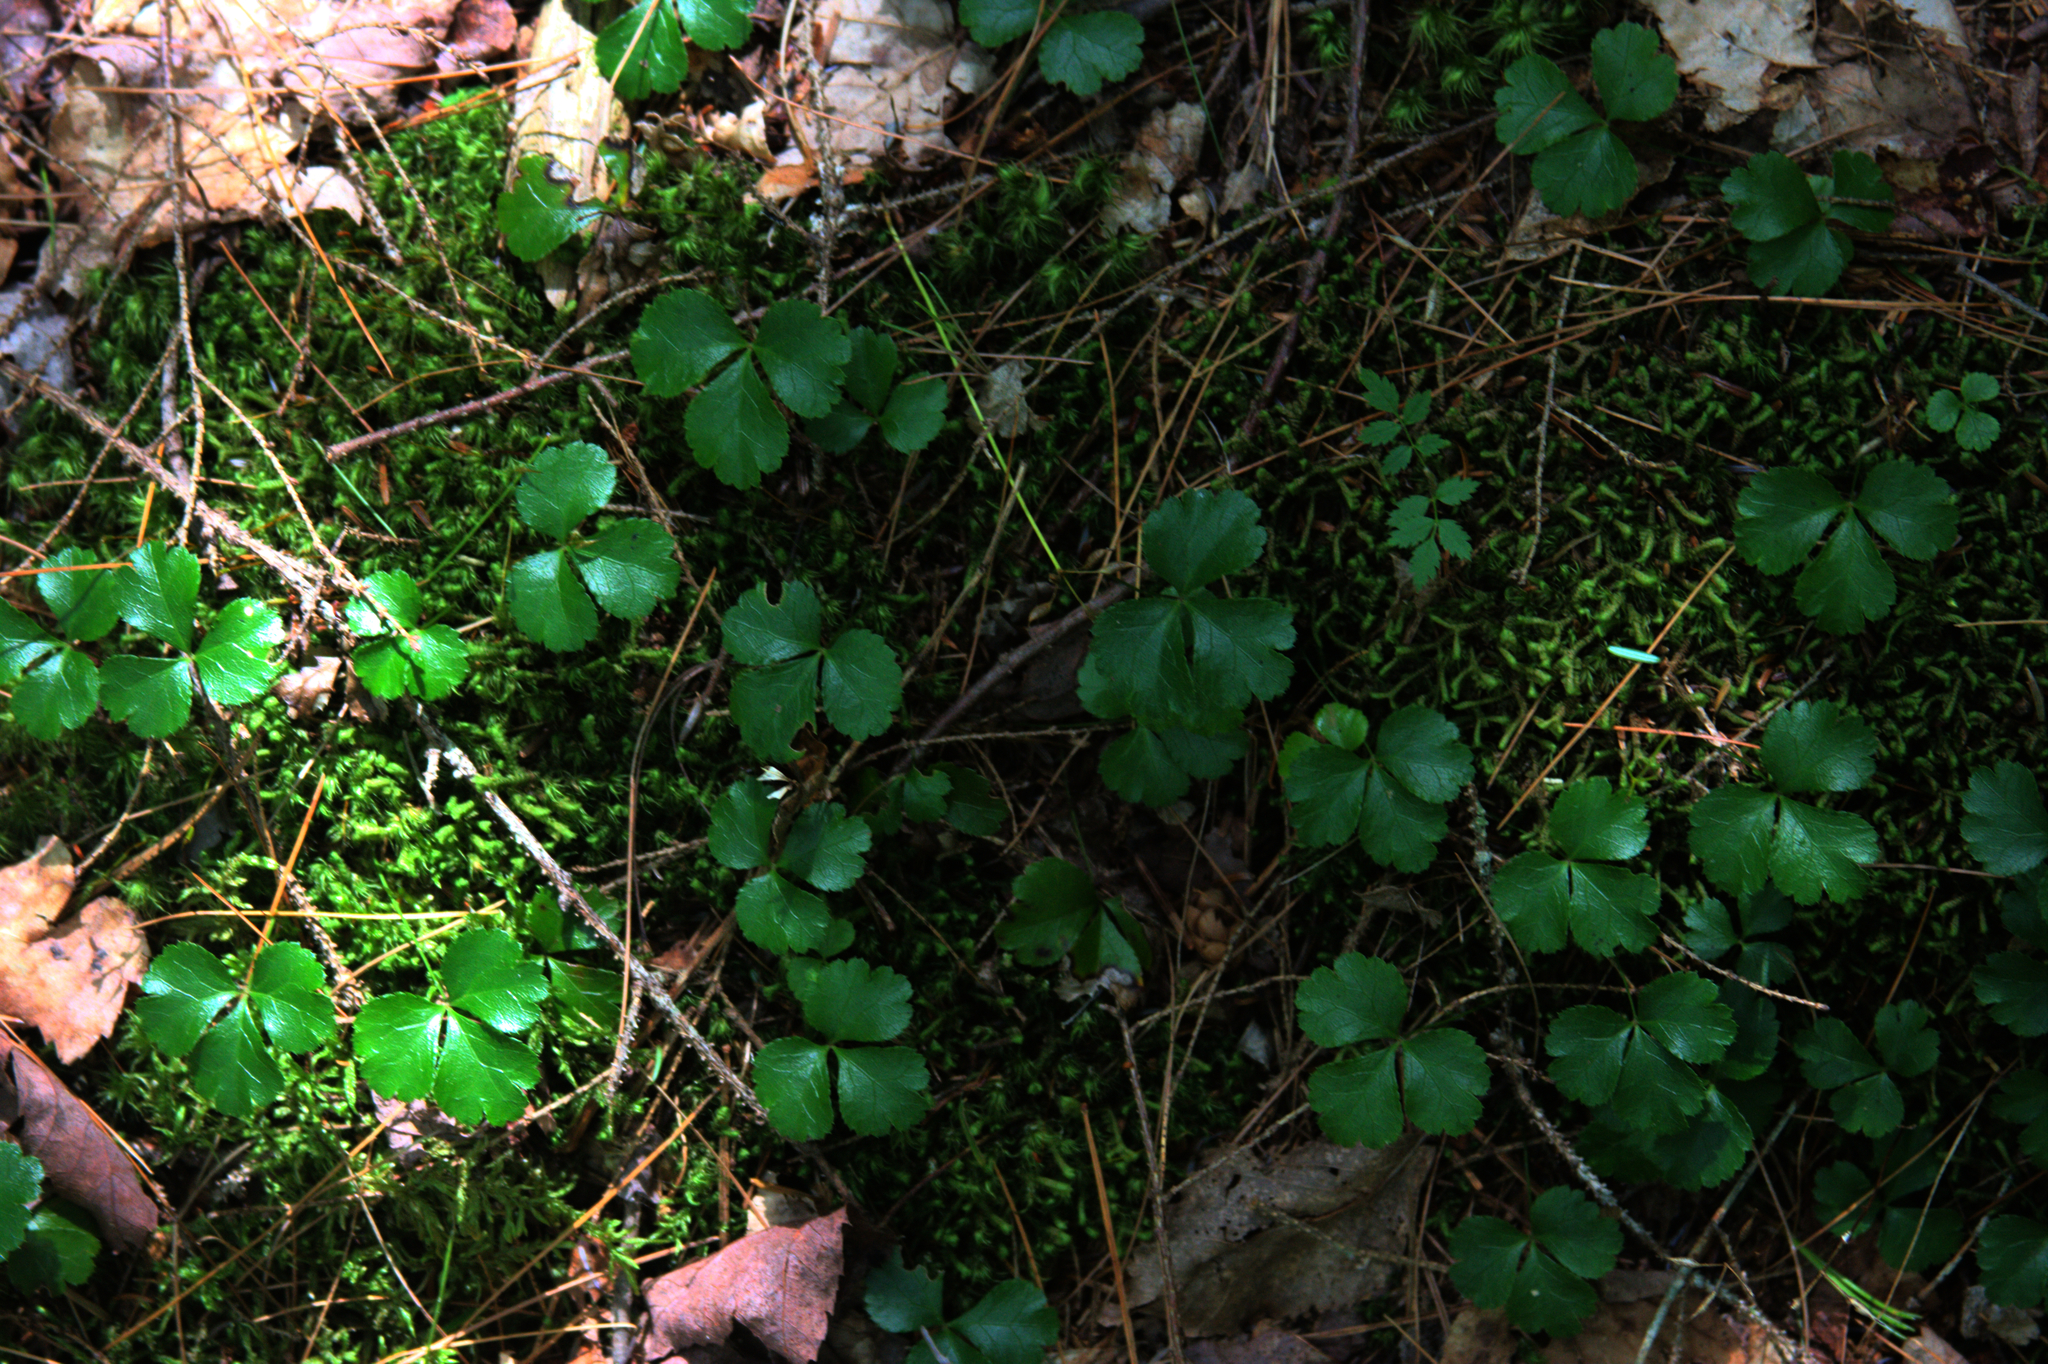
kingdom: Plantae
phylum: Tracheophyta
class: Magnoliopsida
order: Ranunculales
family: Ranunculaceae
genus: Coptis
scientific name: Coptis trifolia
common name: Canker-root
